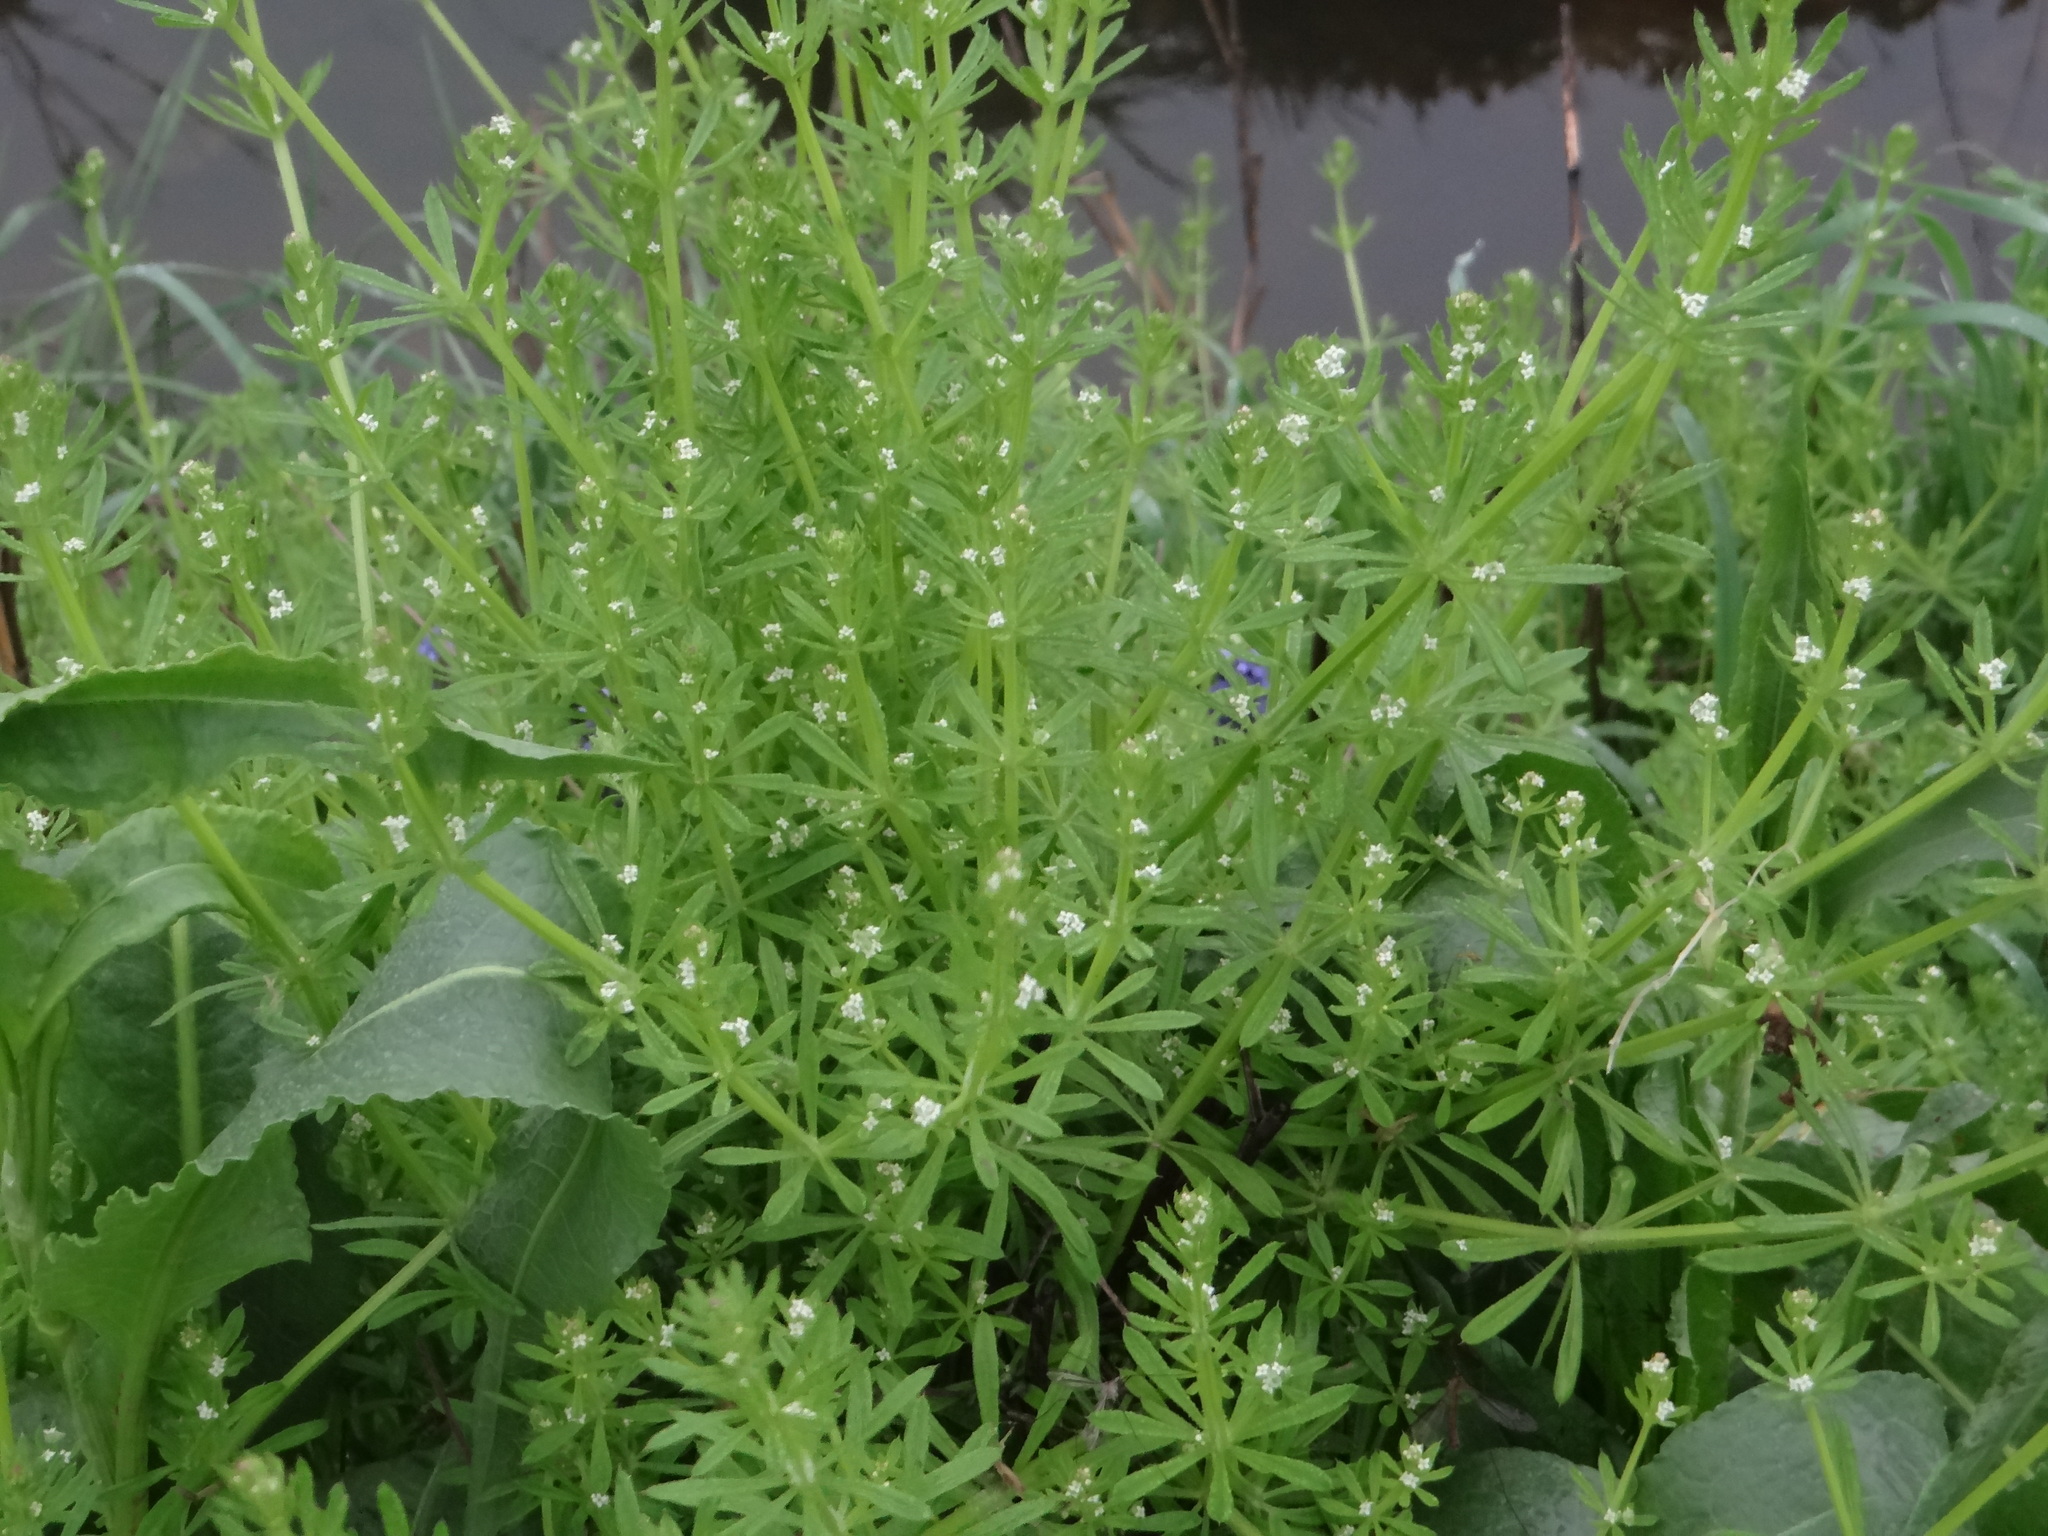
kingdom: Plantae
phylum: Tracheophyta
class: Magnoliopsida
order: Gentianales
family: Rubiaceae
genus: Galium
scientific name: Galium aparine
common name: Cleavers
